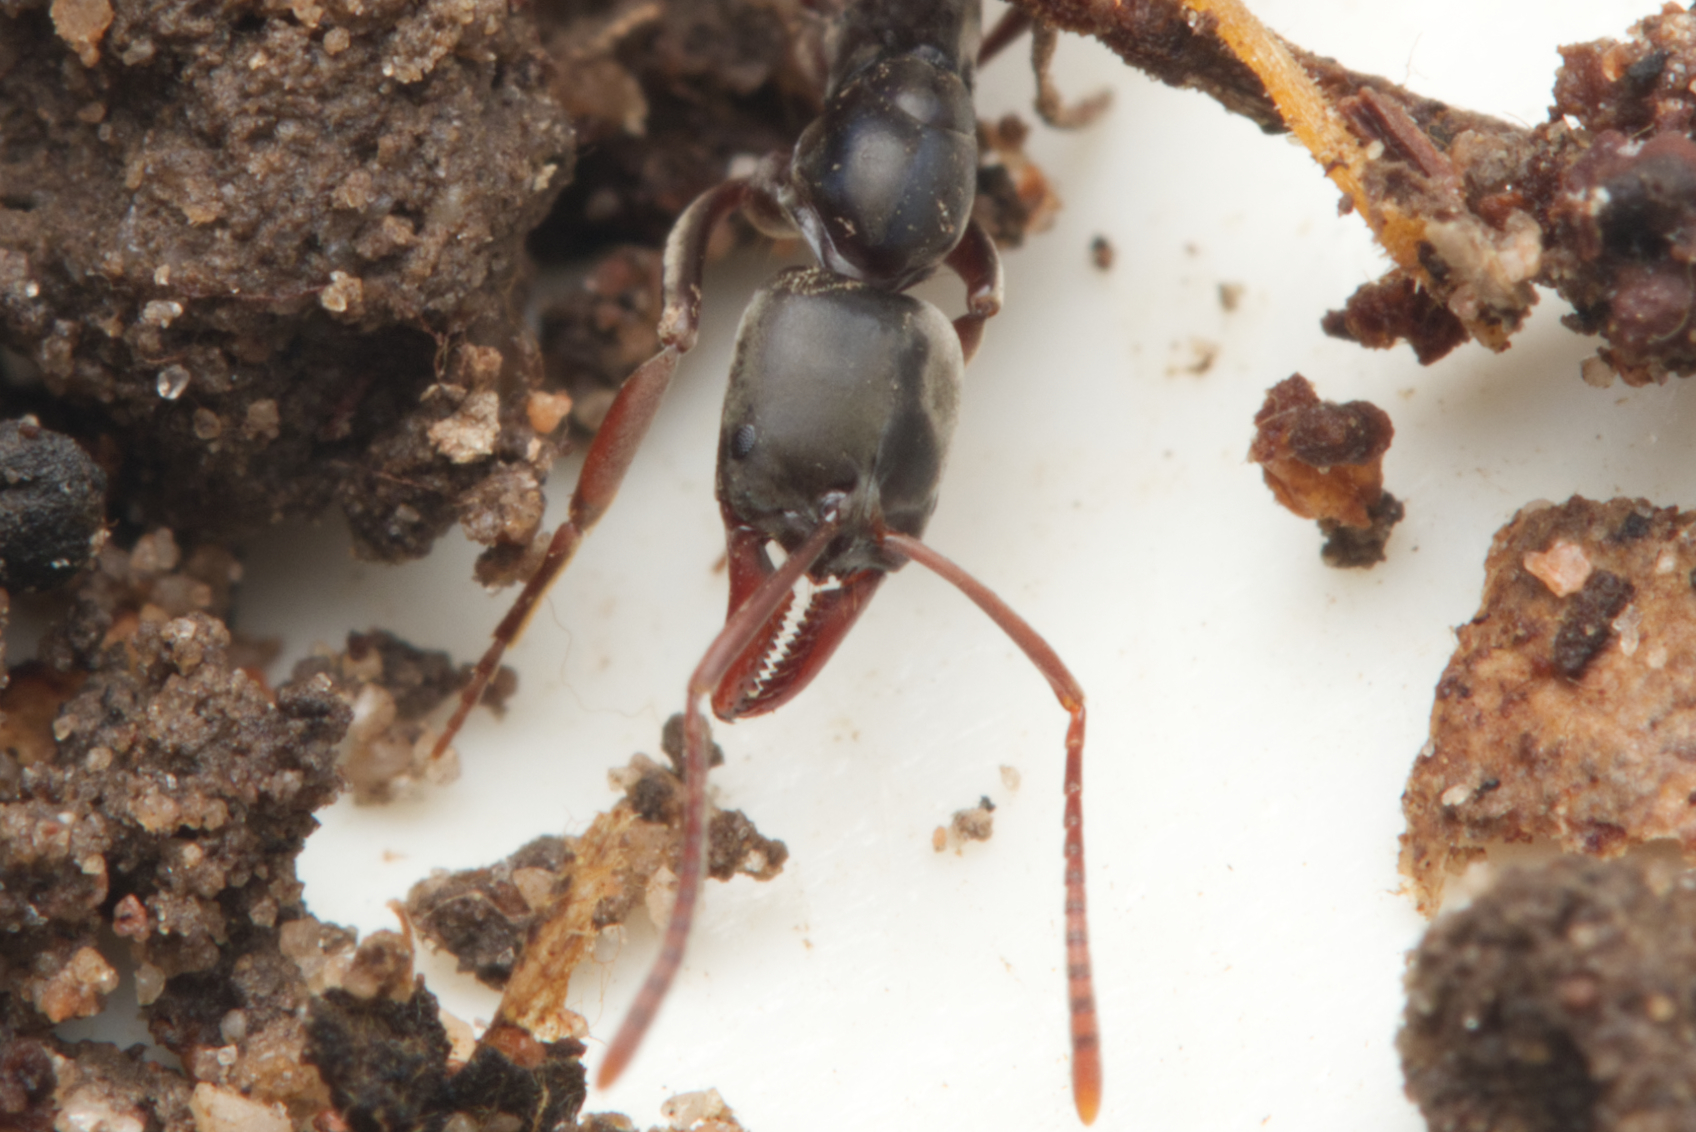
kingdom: Animalia
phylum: Arthropoda
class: Insecta
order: Hymenoptera
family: Formicidae
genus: Mesoponera
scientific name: Mesoponera
